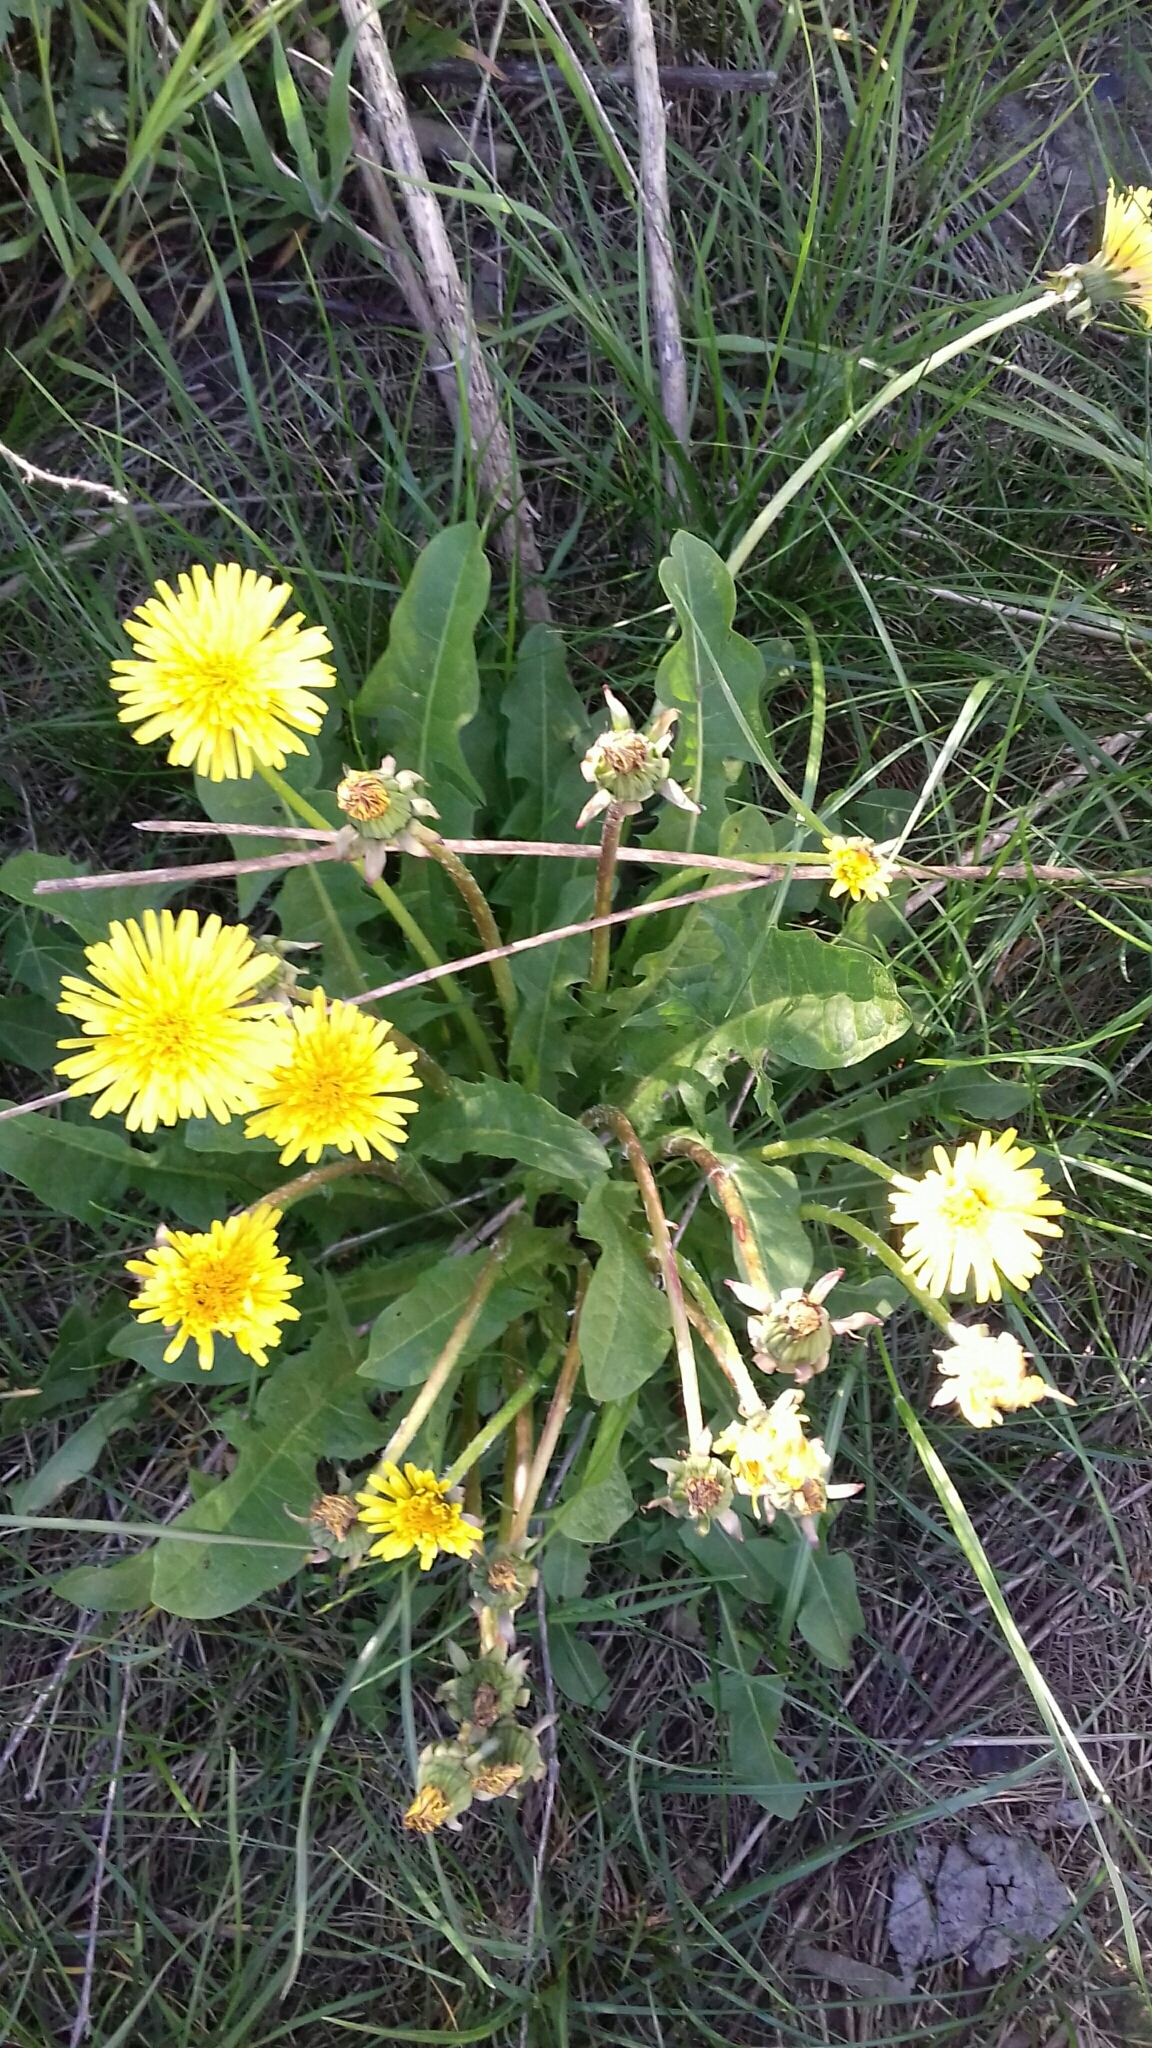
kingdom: Plantae
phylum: Tracheophyta
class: Magnoliopsida
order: Asterales
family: Asteraceae
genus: Taraxacum
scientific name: Taraxacum officinale
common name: Common dandelion
